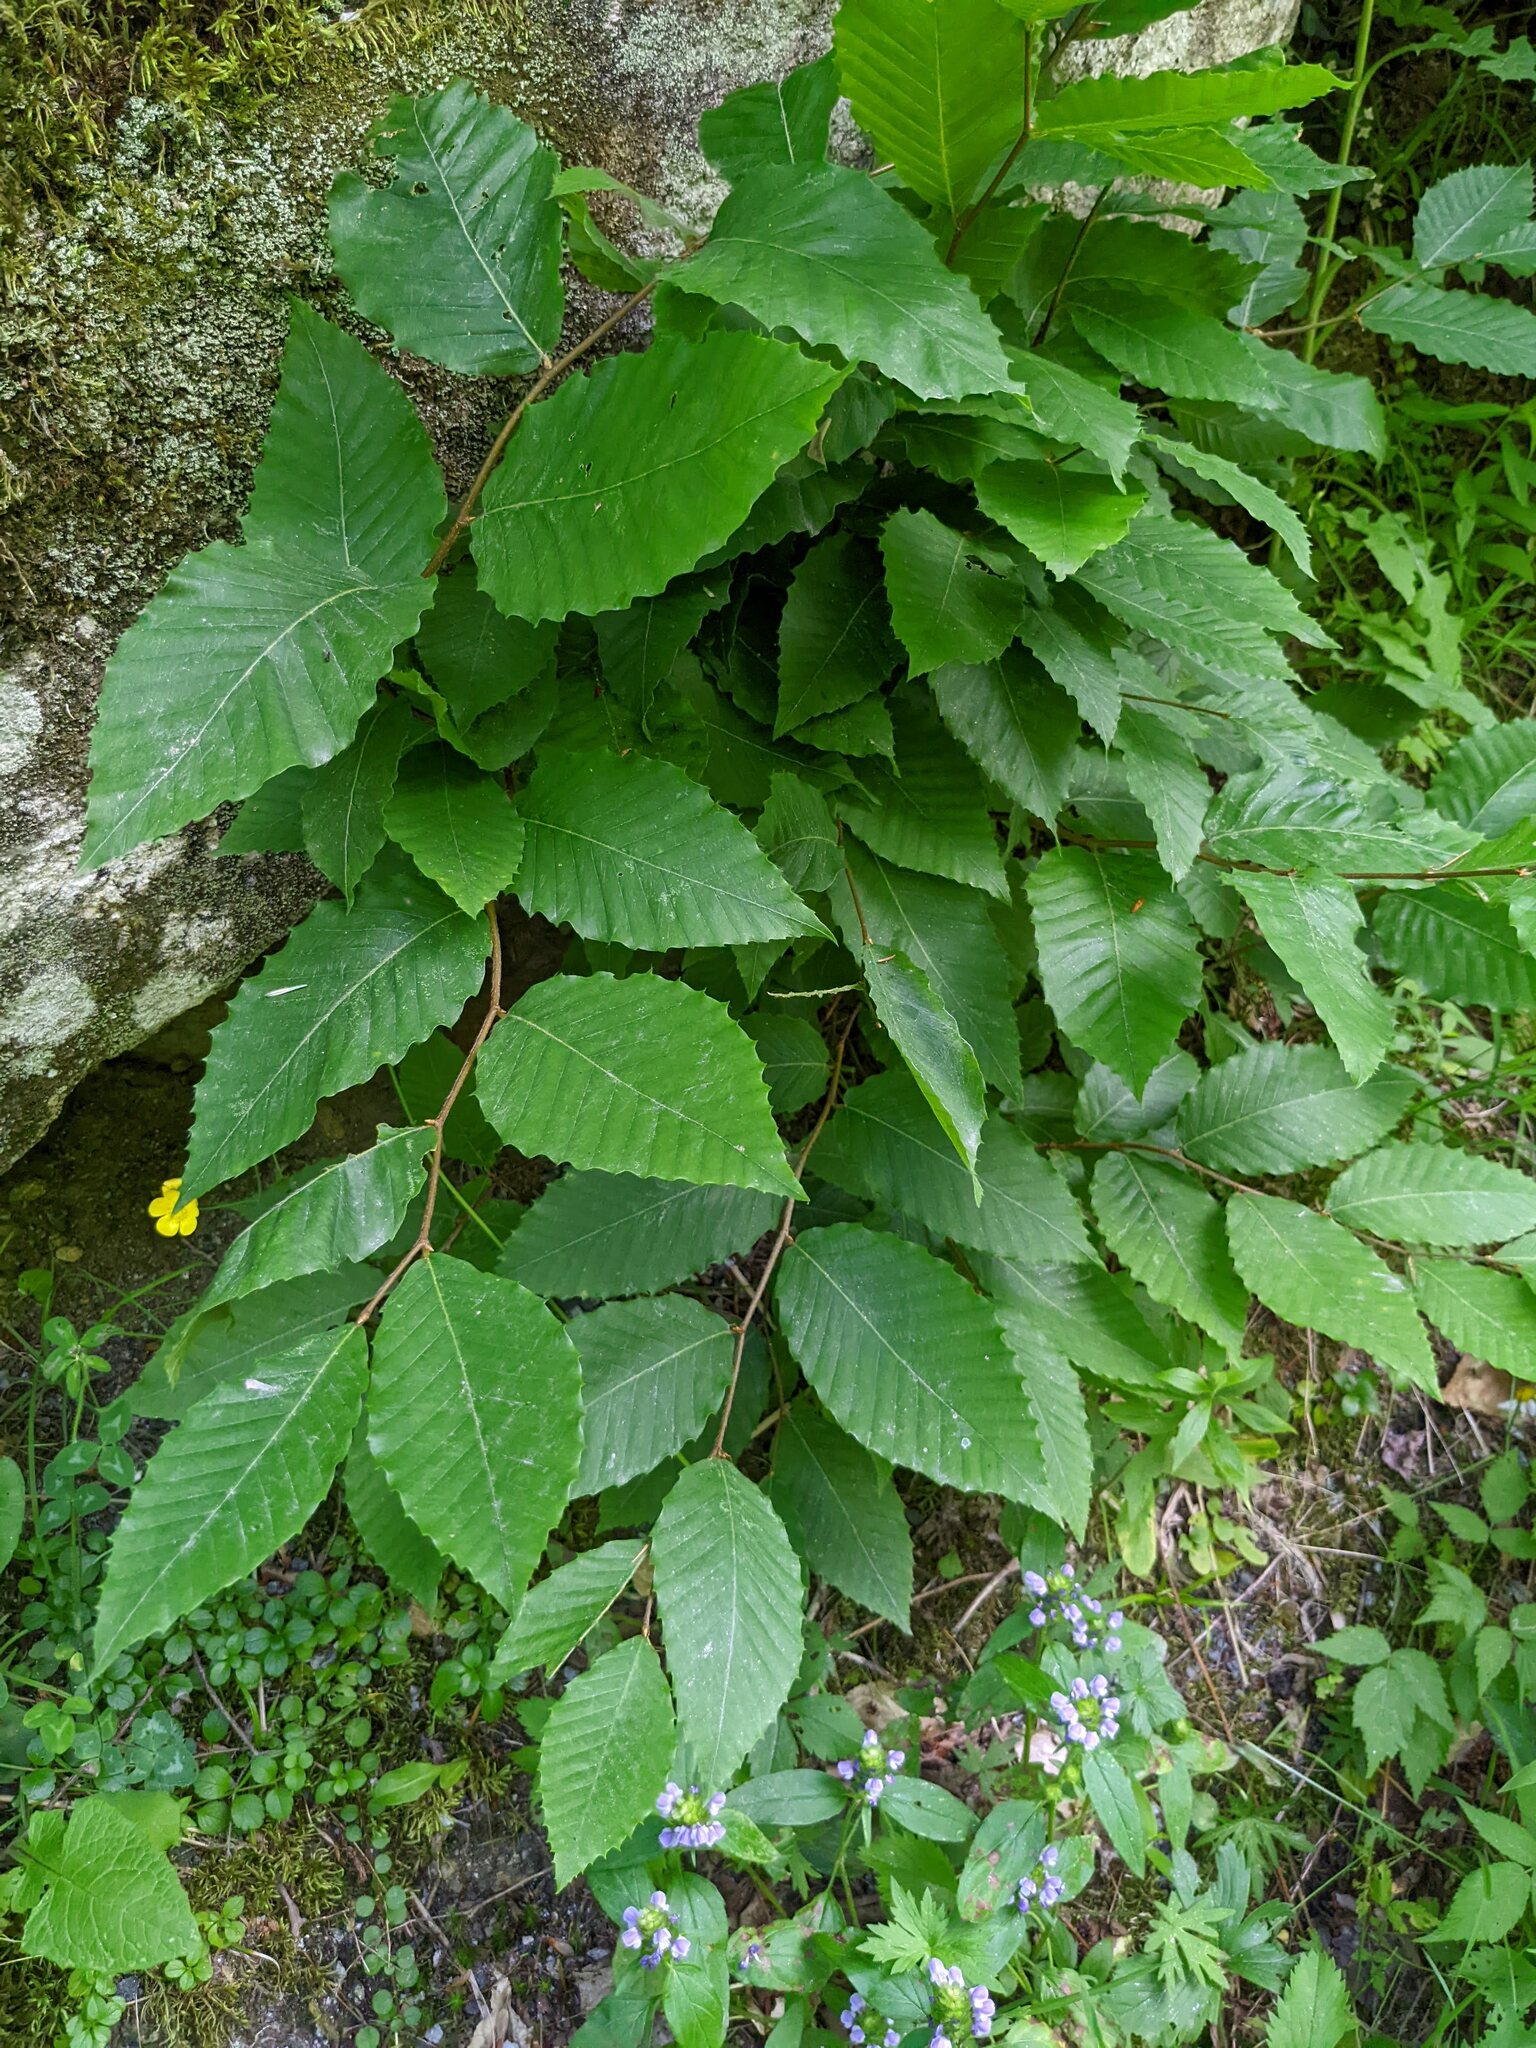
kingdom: Plantae
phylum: Tracheophyta
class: Magnoliopsida
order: Fagales
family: Fagaceae
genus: Fagus
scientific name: Fagus grandifolia
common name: American beech
